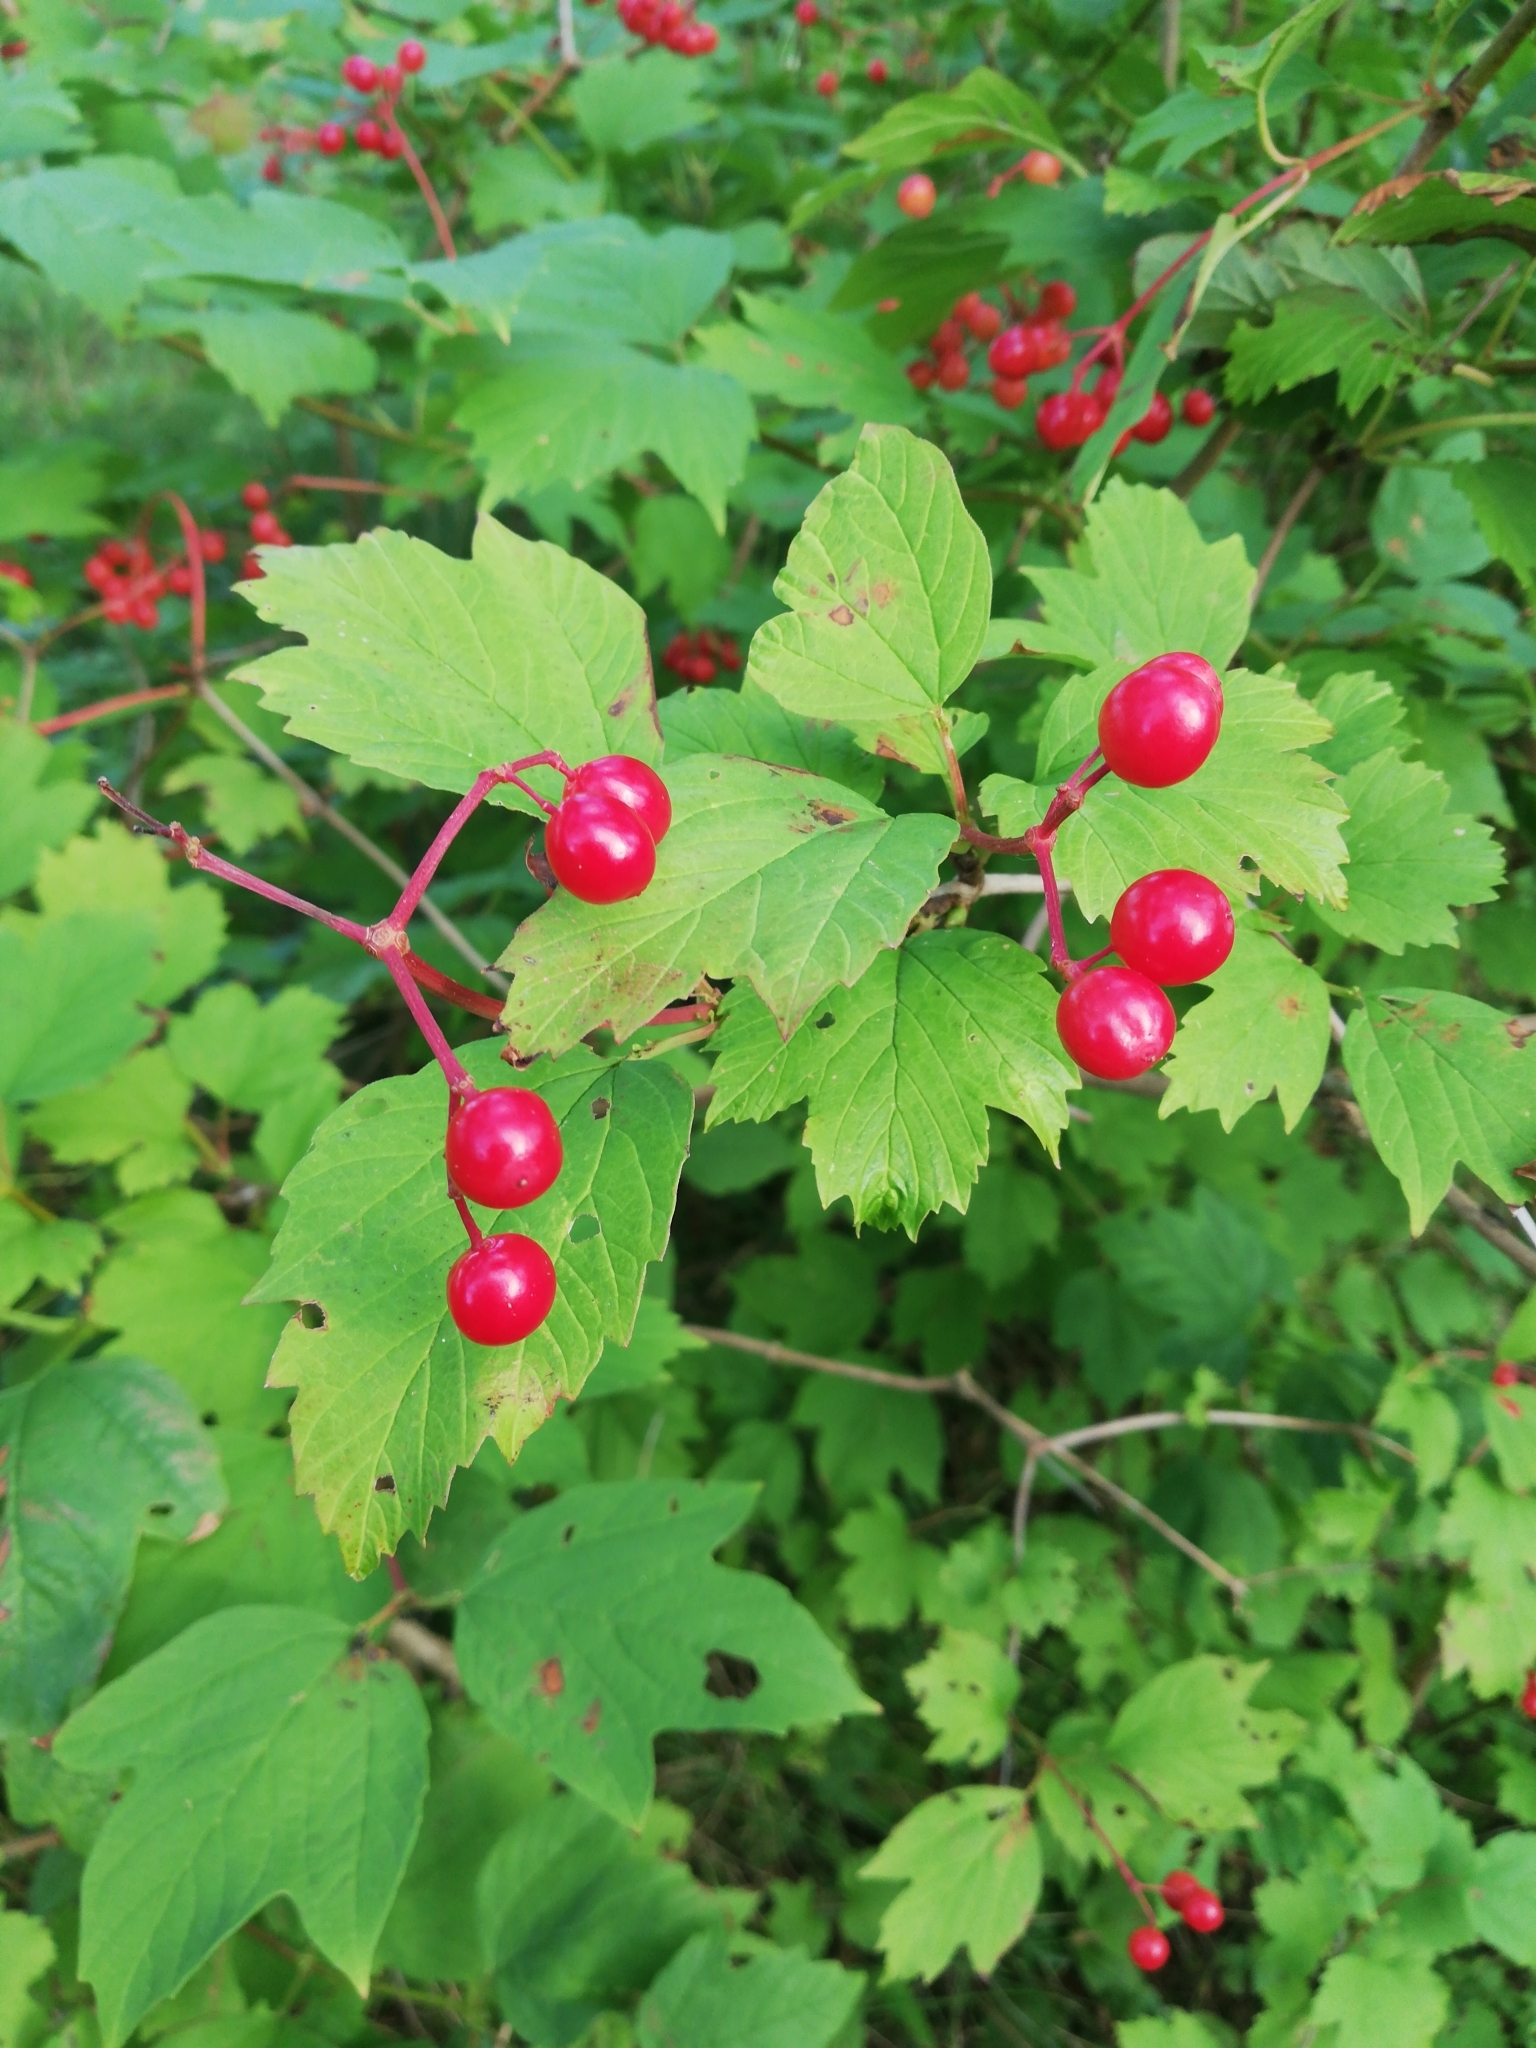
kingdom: Plantae
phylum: Tracheophyta
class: Magnoliopsida
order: Dipsacales
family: Viburnaceae
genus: Viburnum
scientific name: Viburnum opulus
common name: Guelder-rose
